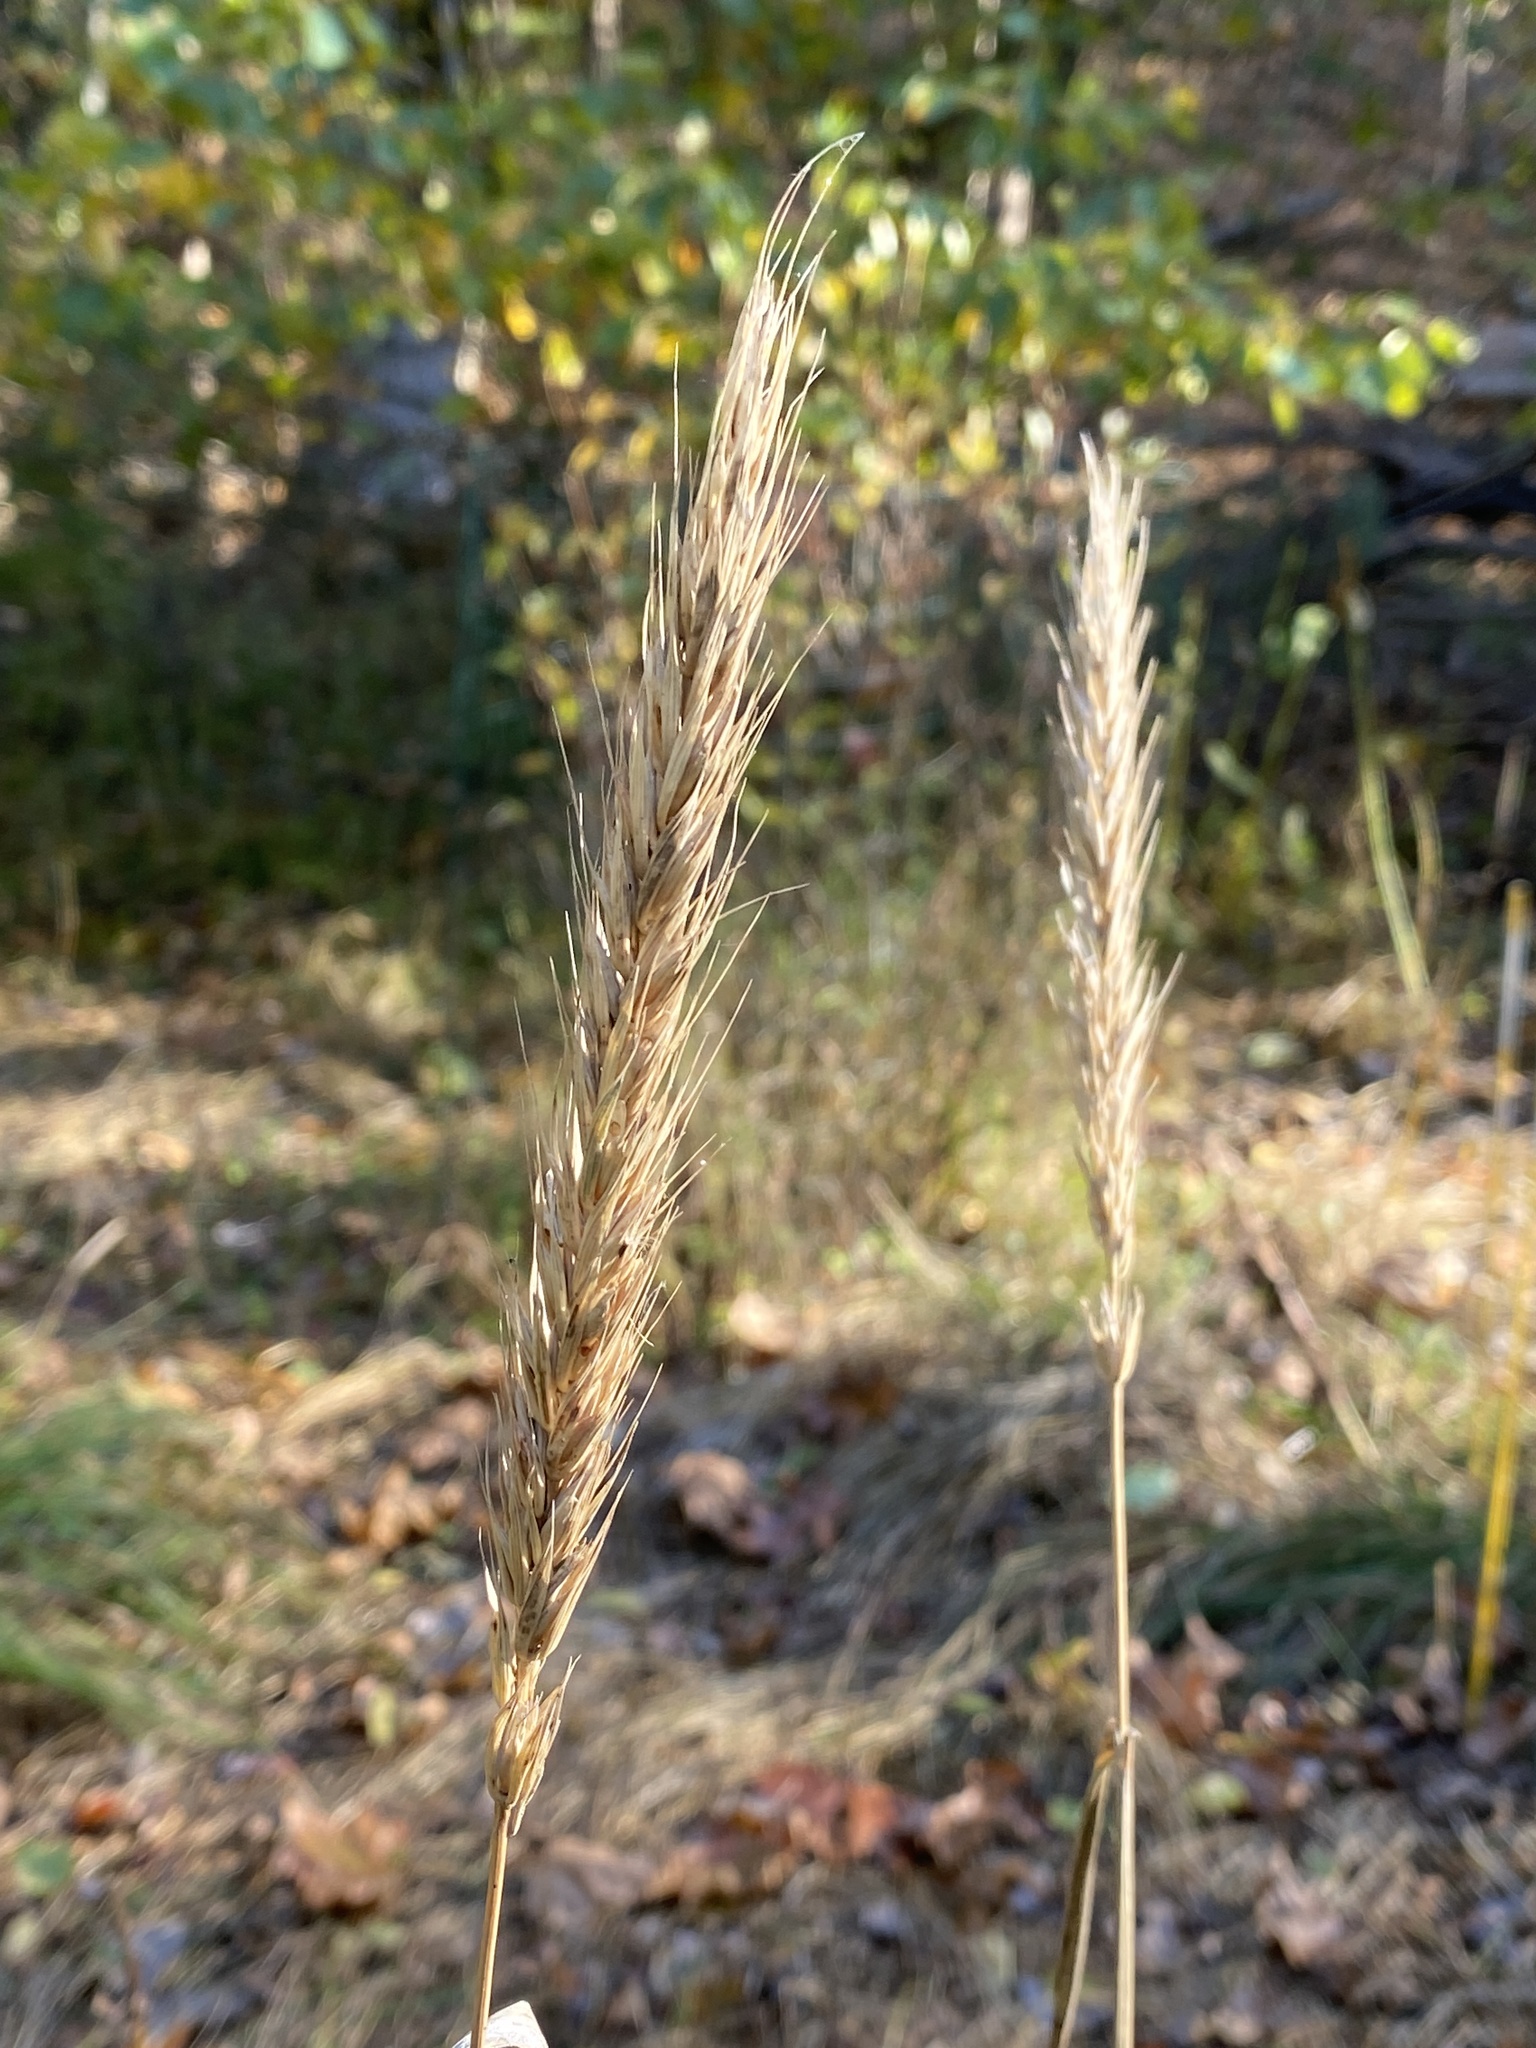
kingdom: Plantae
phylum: Tracheophyta
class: Liliopsida
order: Poales
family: Poaceae
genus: Elymus
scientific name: Elymus virginicus
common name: Common eastern wildrye
